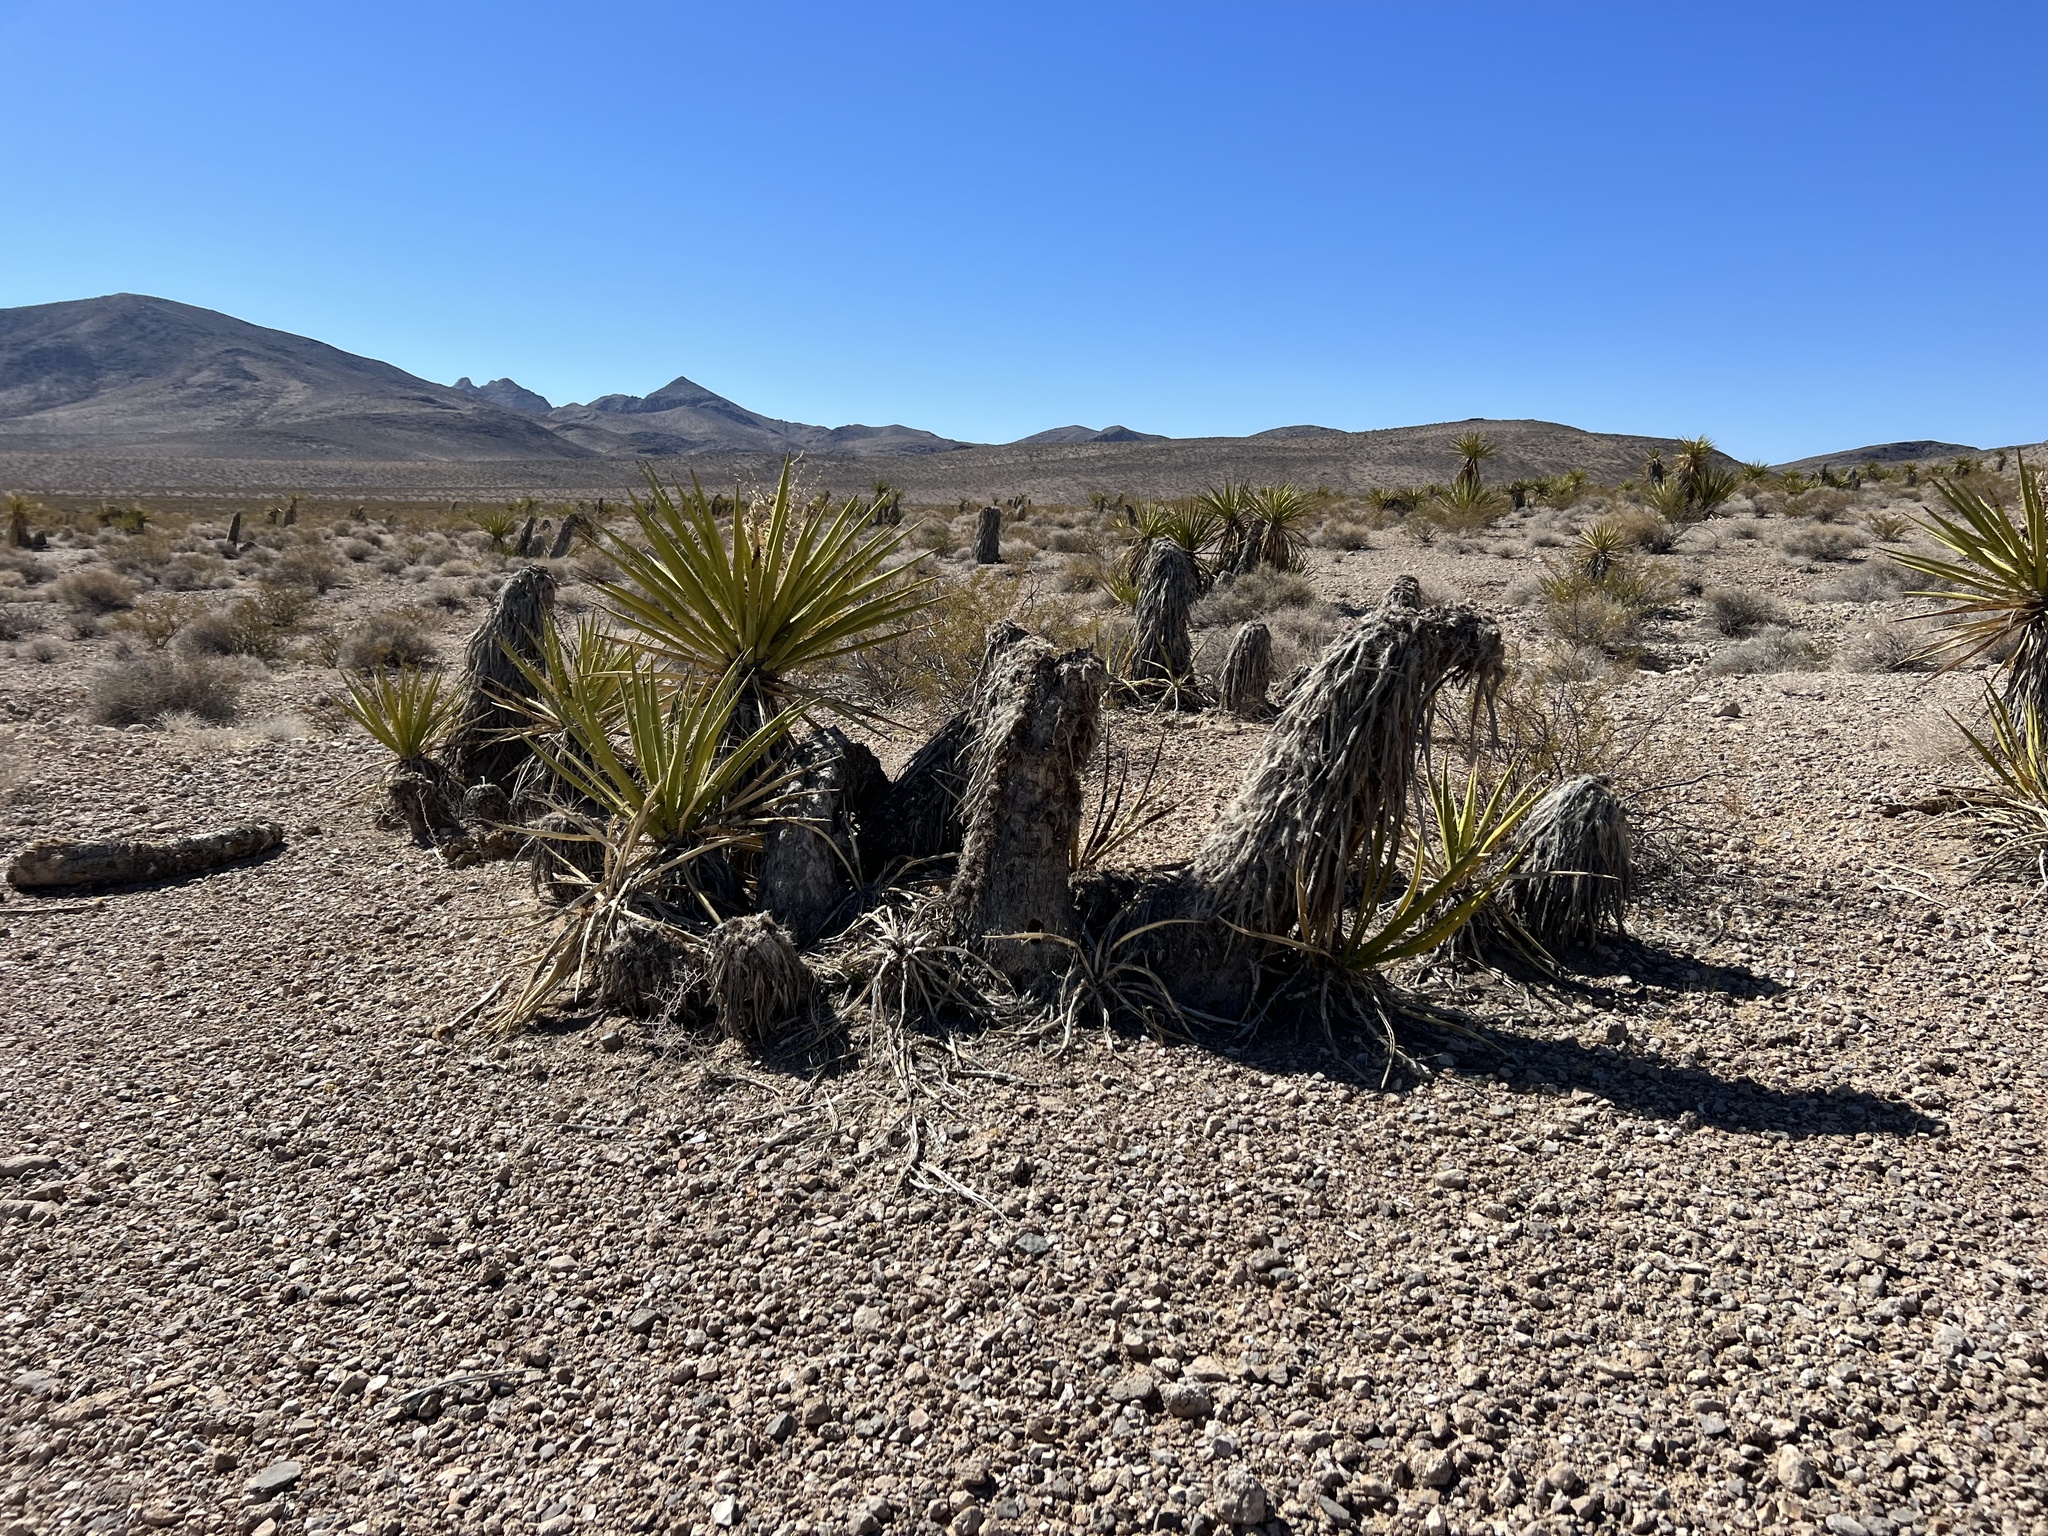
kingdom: Plantae
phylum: Tracheophyta
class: Liliopsida
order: Asparagales
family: Asparagaceae
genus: Yucca
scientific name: Yucca schidigera
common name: Mojave yucca
